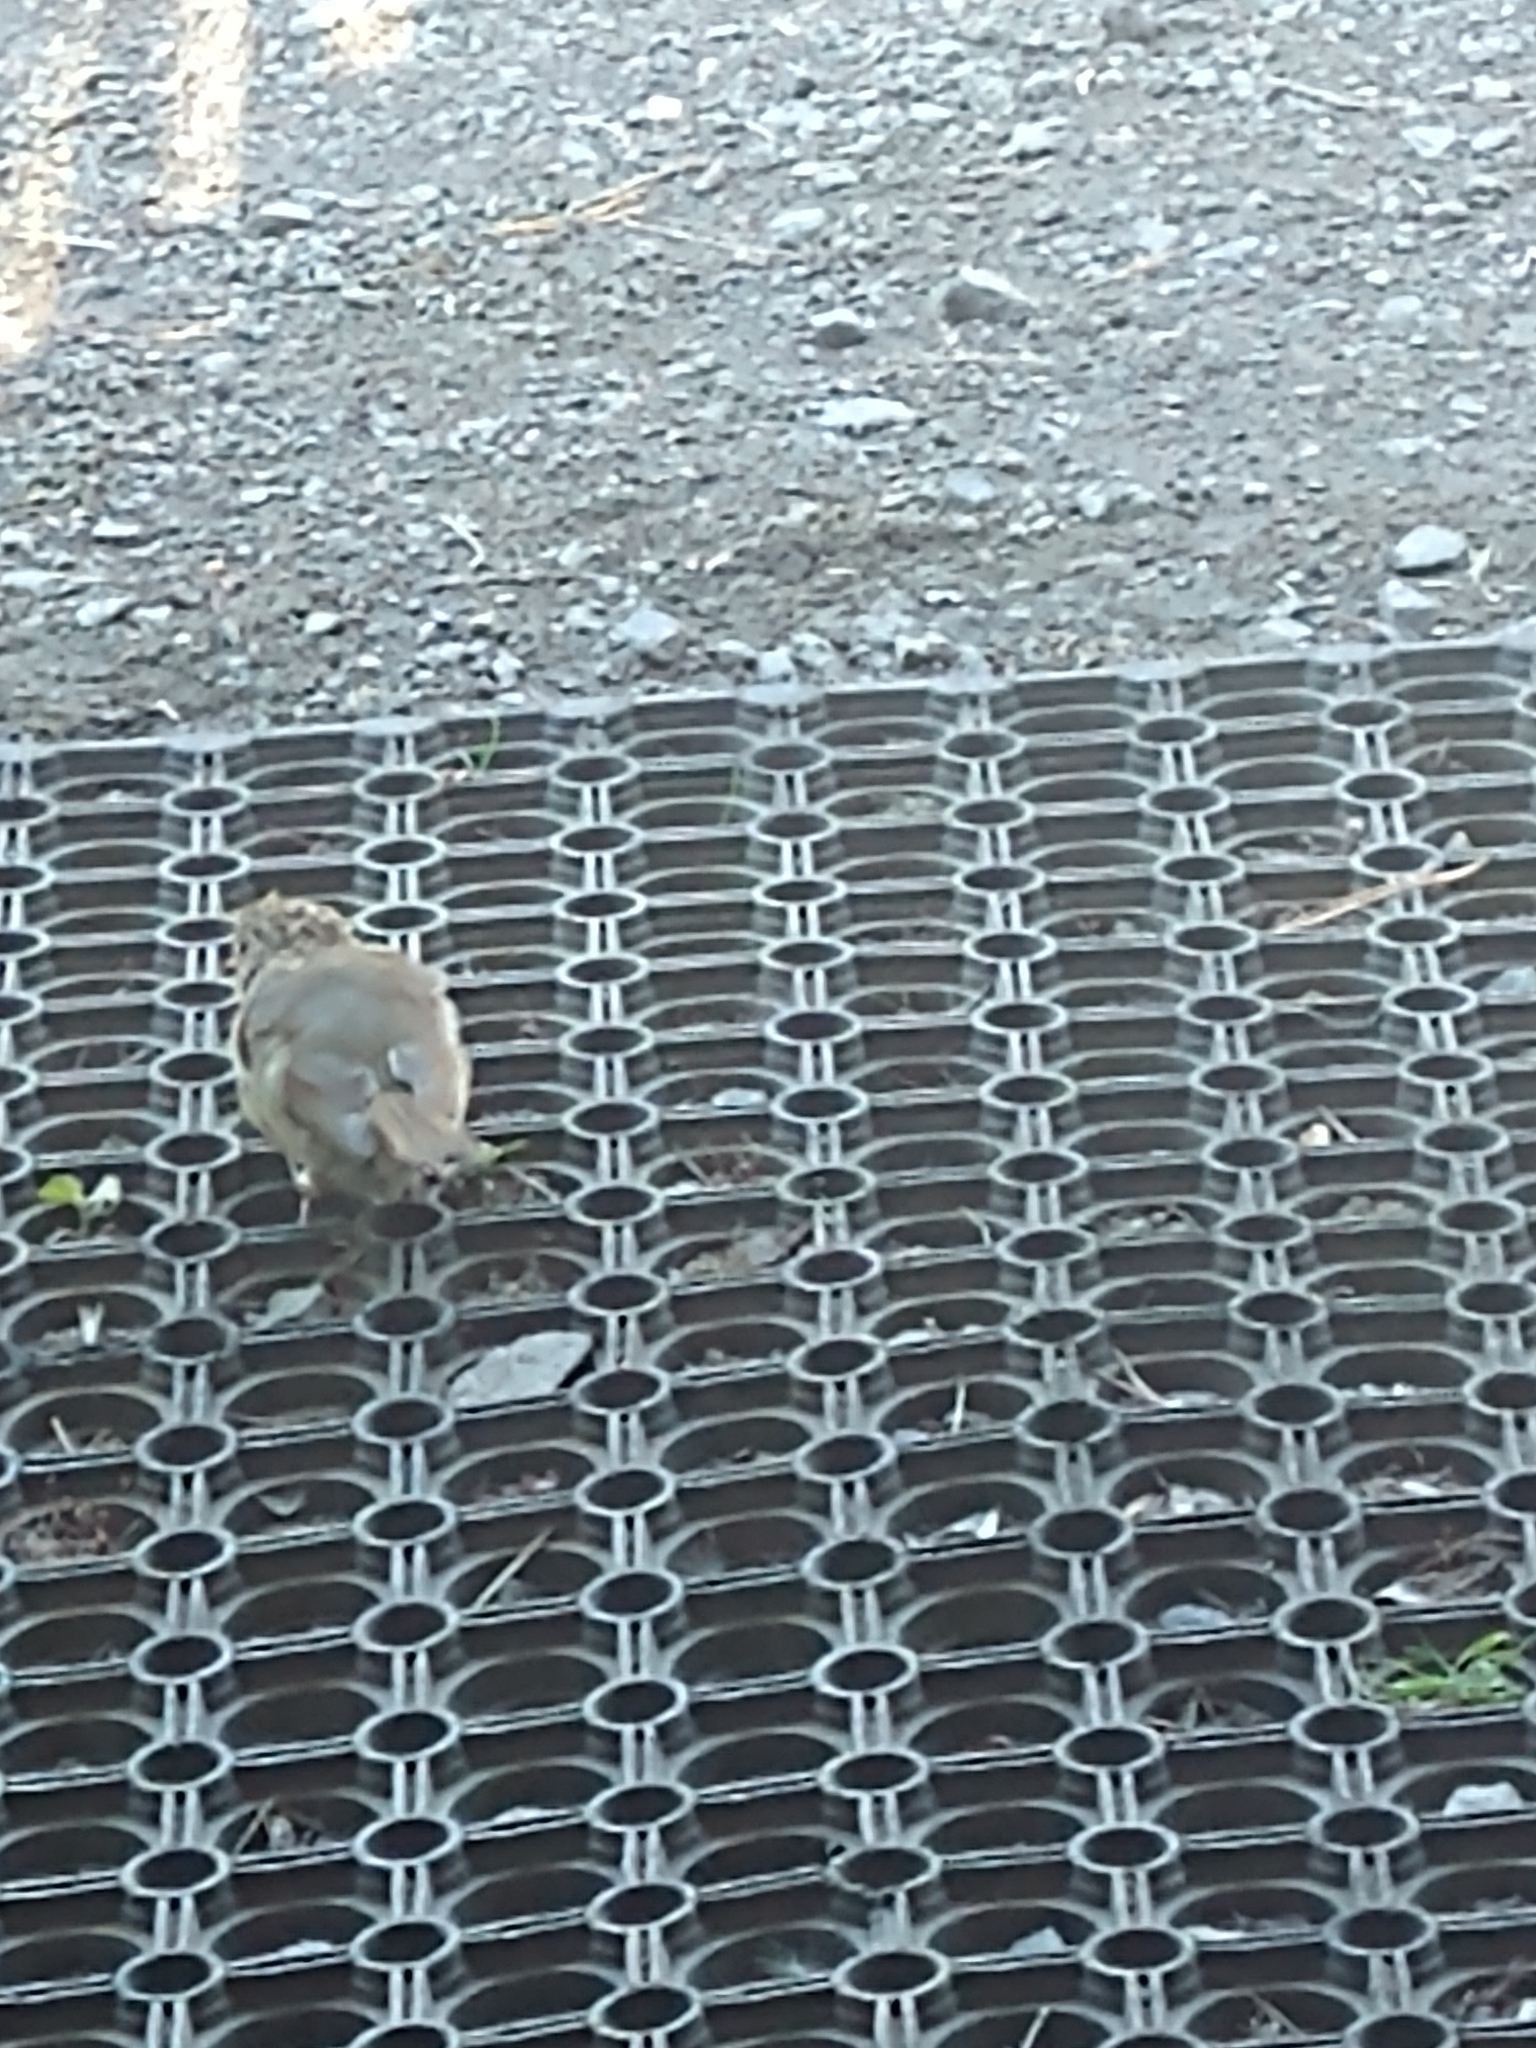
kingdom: Animalia
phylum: Chordata
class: Aves
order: Passeriformes
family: Muscicapidae
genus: Erithacus
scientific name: Erithacus rubecula
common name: European robin
